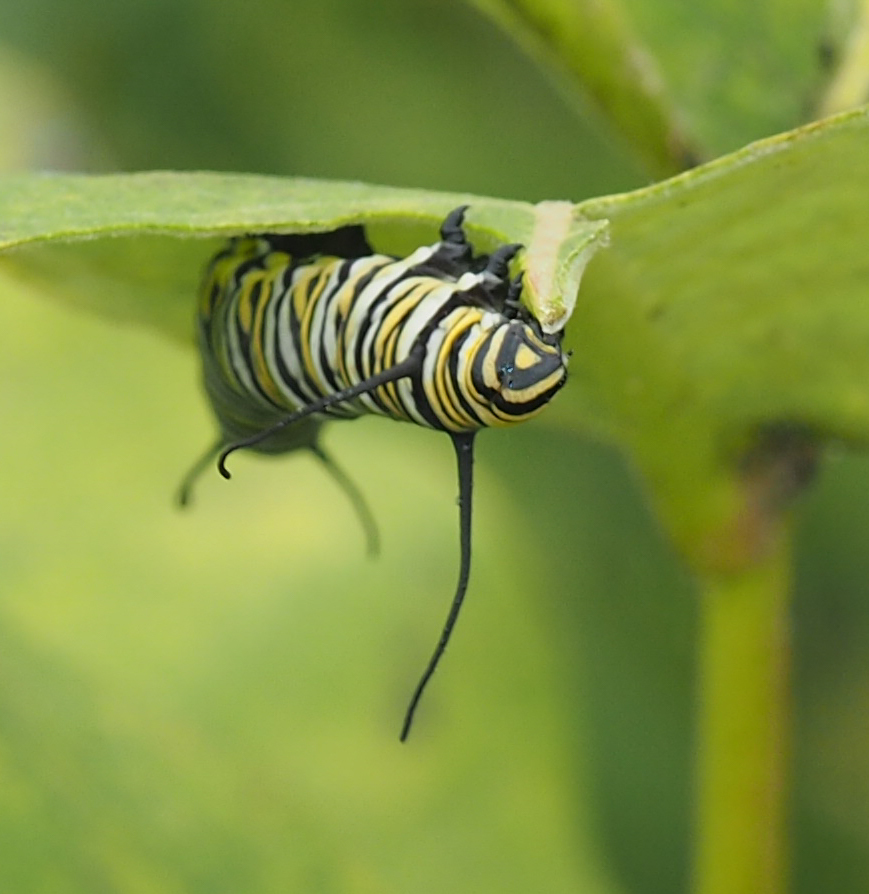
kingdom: Animalia
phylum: Arthropoda
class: Insecta
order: Lepidoptera
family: Nymphalidae
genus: Danaus
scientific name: Danaus plexippus
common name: Monarch
